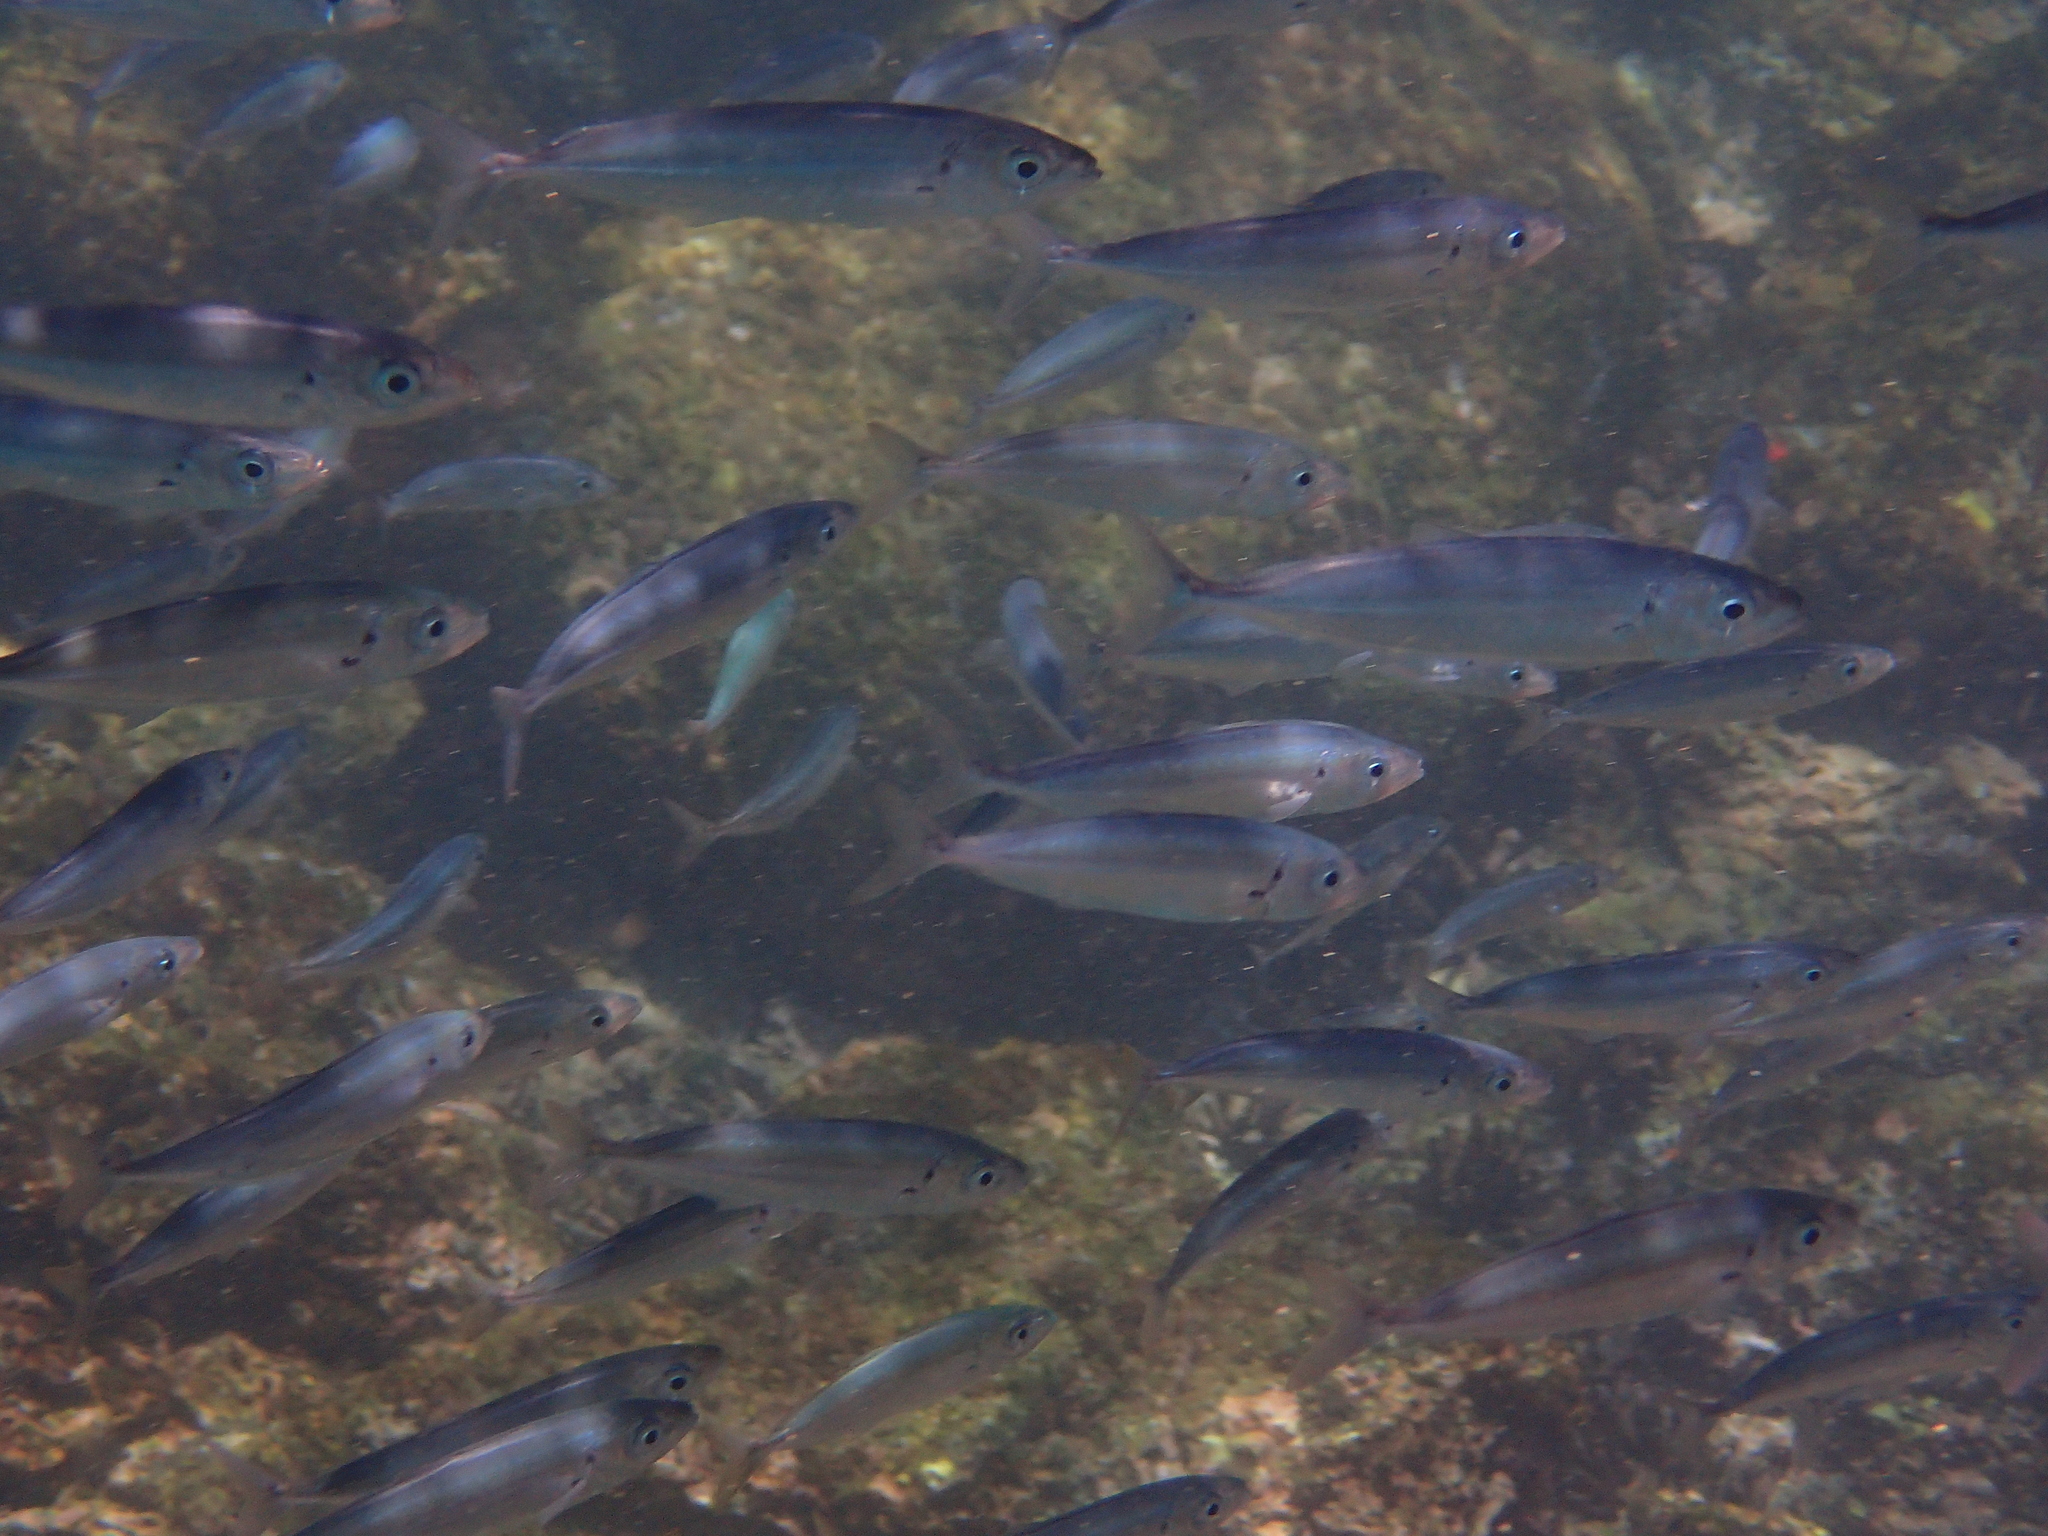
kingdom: Animalia
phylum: Chordata
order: Perciformes
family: Carangidae
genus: Decapterus
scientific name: Decapterus macrosoma
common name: Shortfin scad
